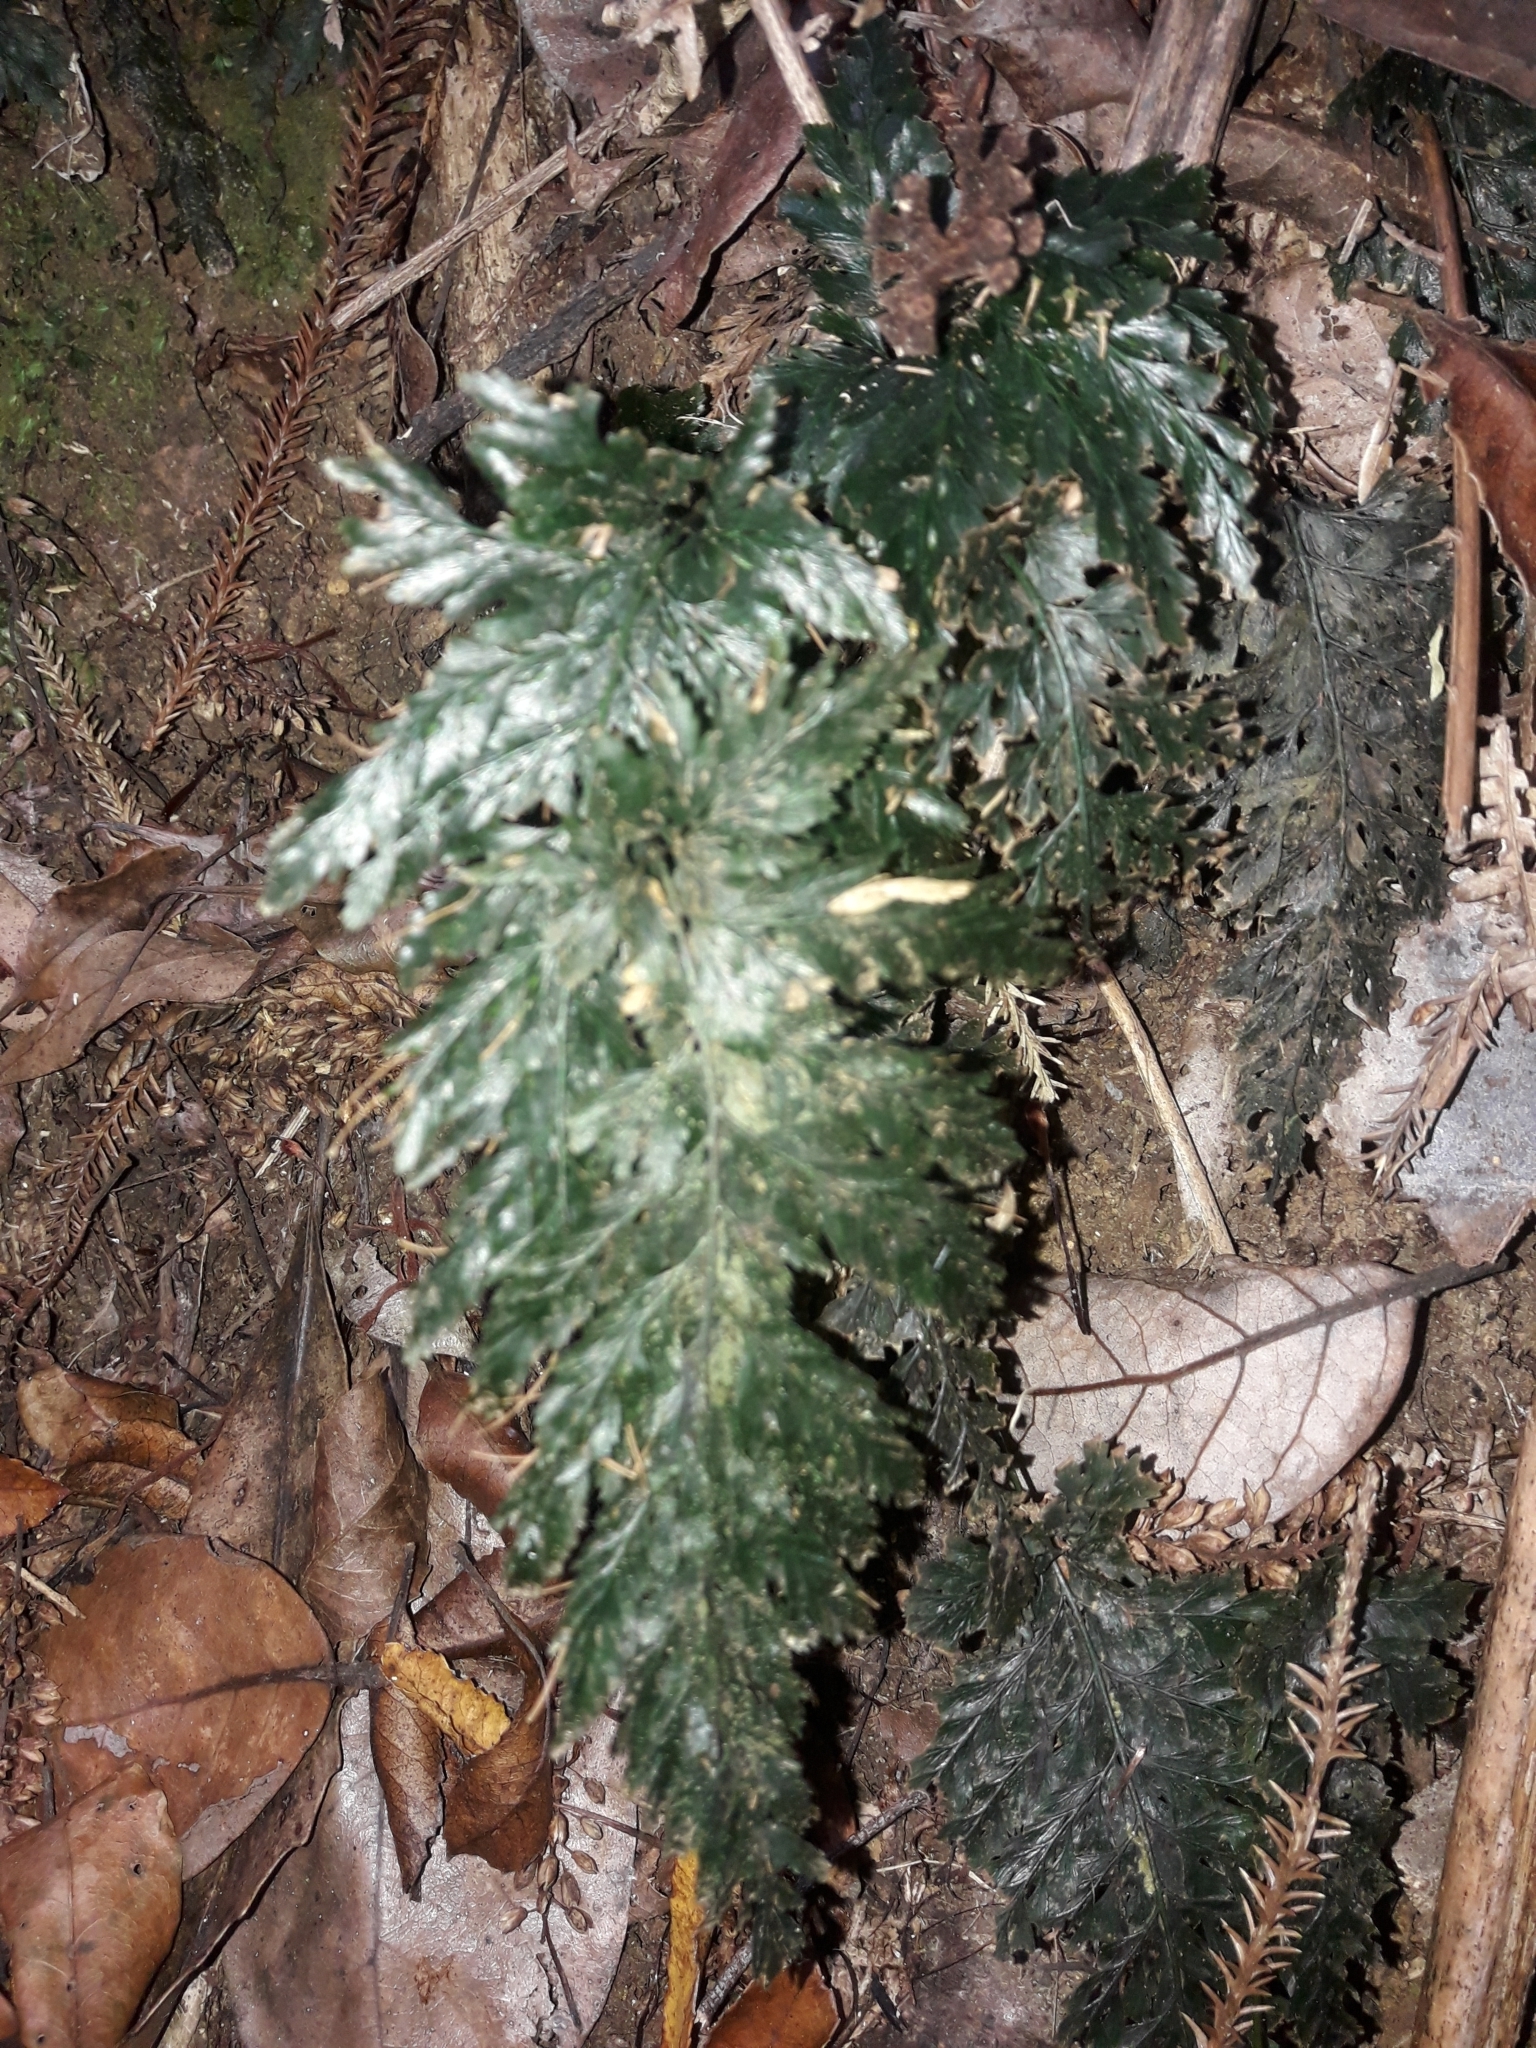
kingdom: Plantae
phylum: Tracheophyta
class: Polypodiopsida
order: Hymenophyllales
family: Hymenophyllaceae
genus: Abrodictyum
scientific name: Abrodictyum elongatum
